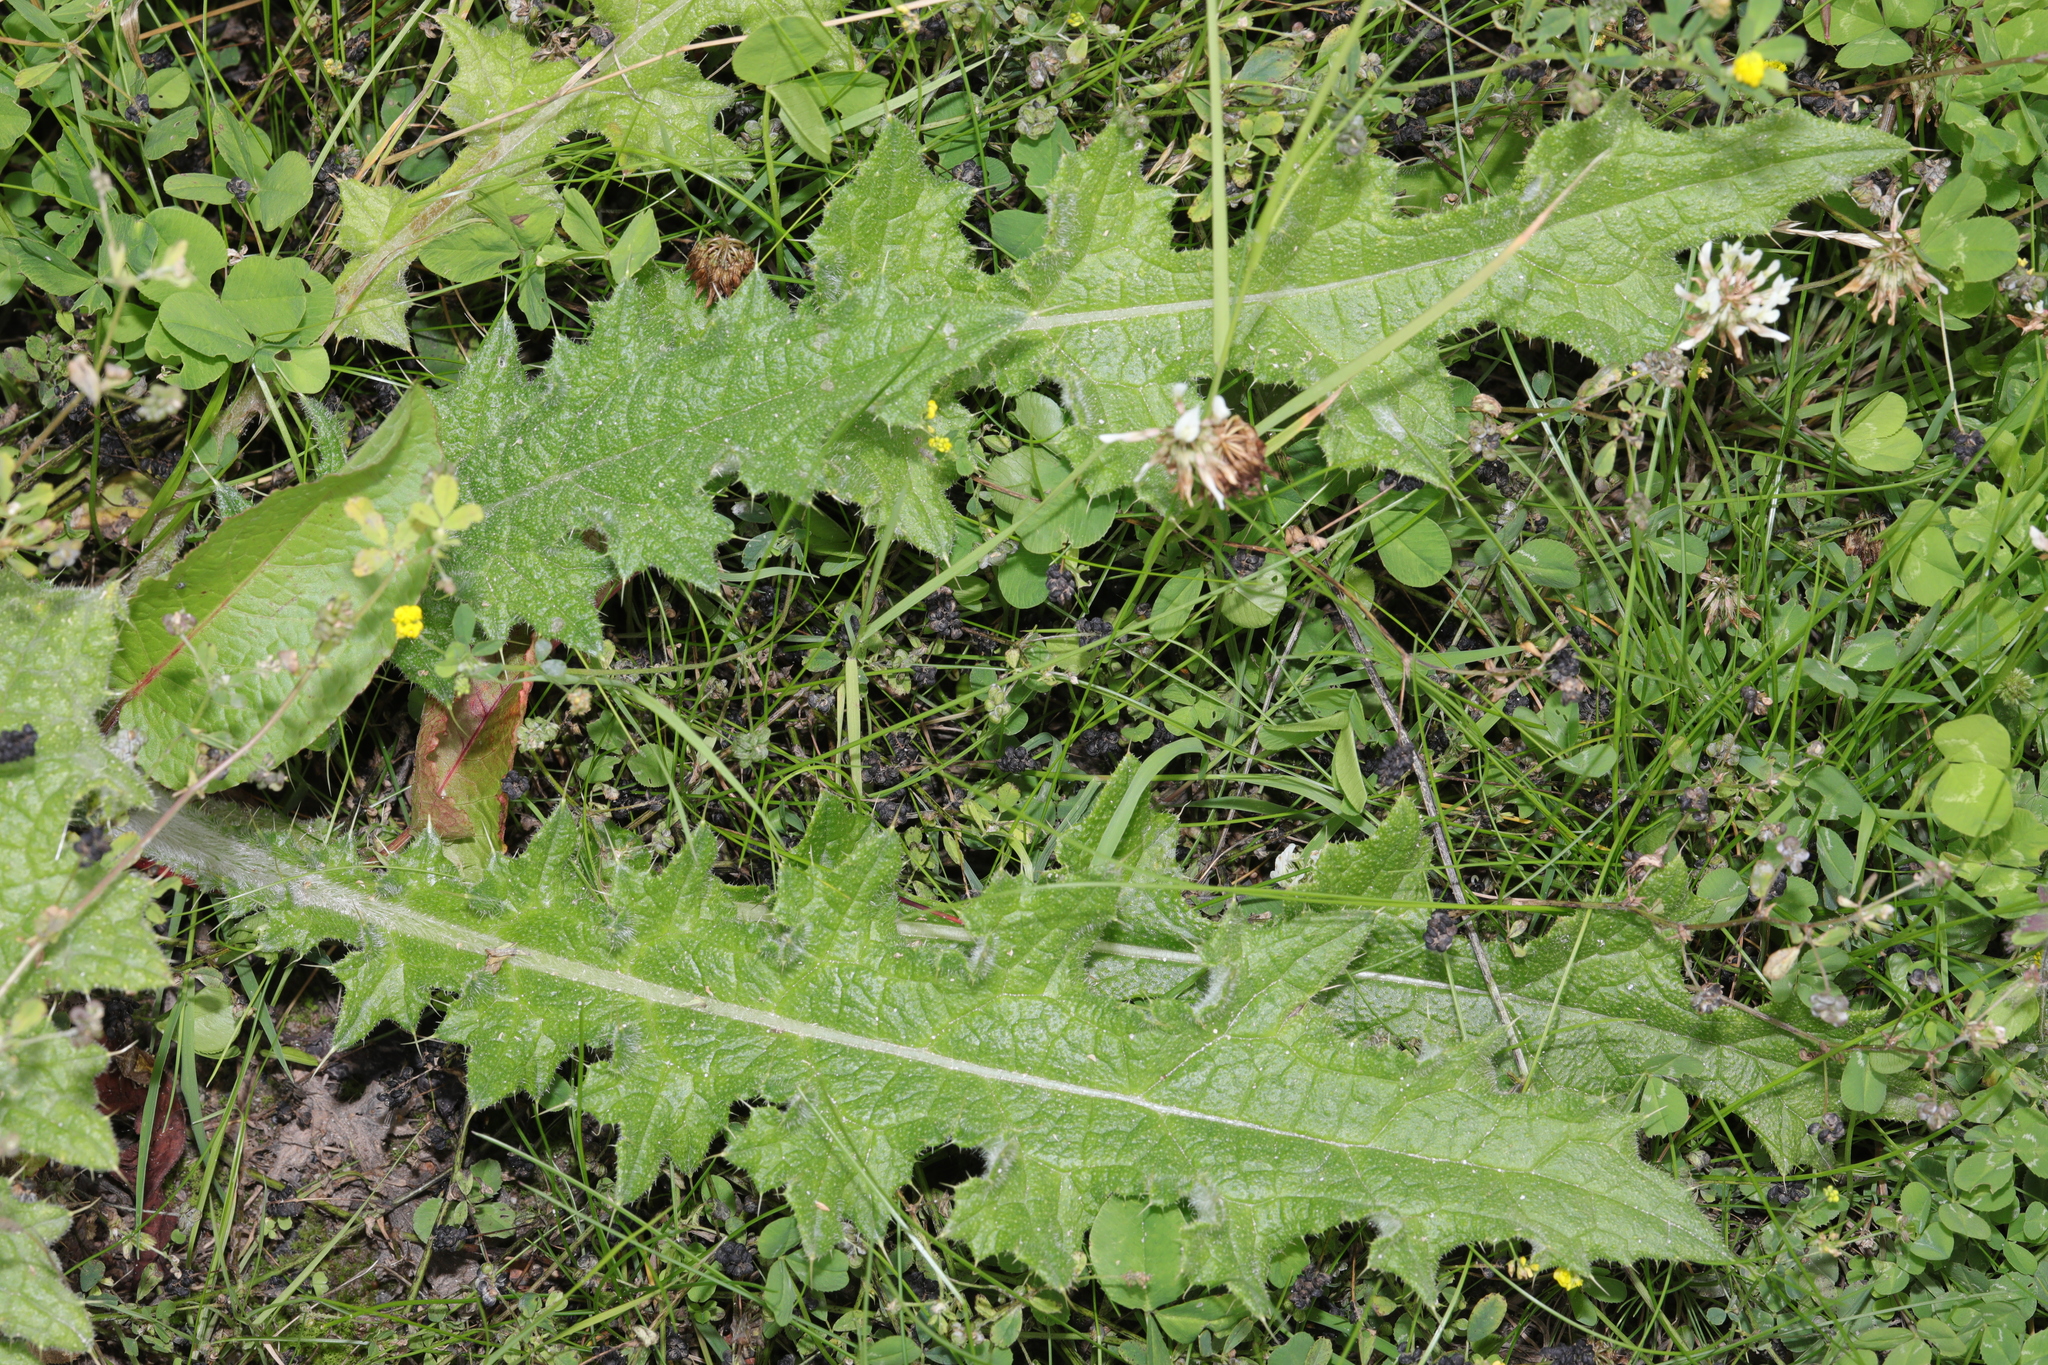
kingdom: Plantae
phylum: Tracheophyta
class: Magnoliopsida
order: Asterales
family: Asteraceae
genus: Cirsium
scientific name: Cirsium vulgare
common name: Bull thistle
